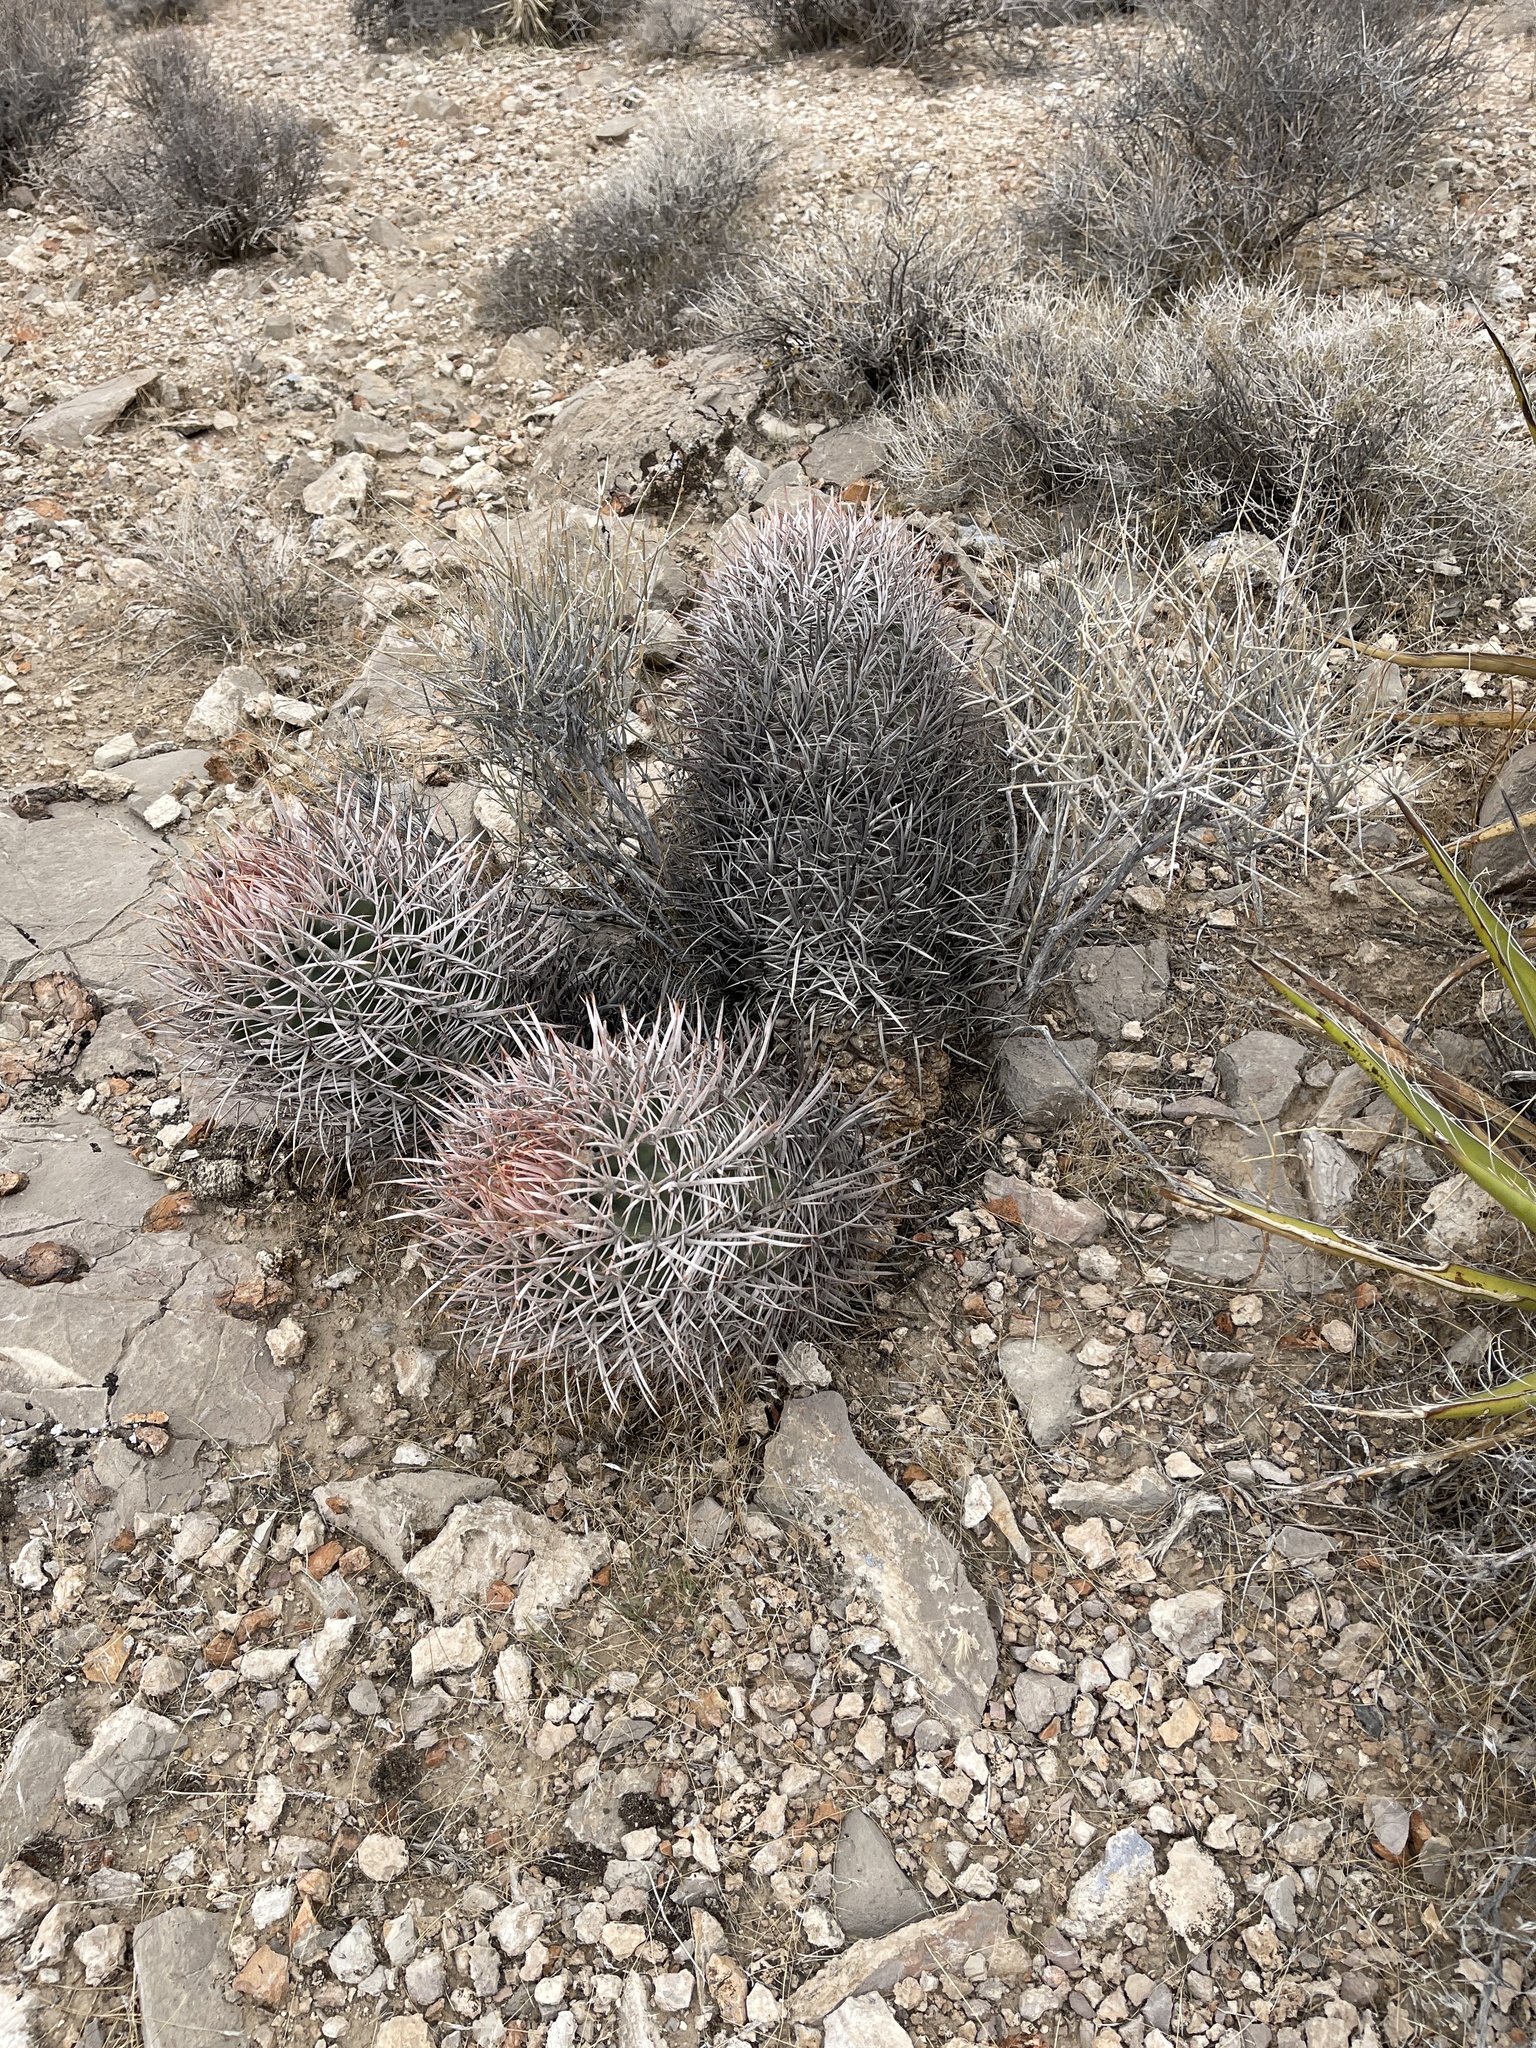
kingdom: Plantae
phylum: Tracheophyta
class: Magnoliopsida
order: Caryophyllales
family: Cactaceae
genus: Echinocactus
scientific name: Echinocactus polycephalus
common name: Cottontop cactus
